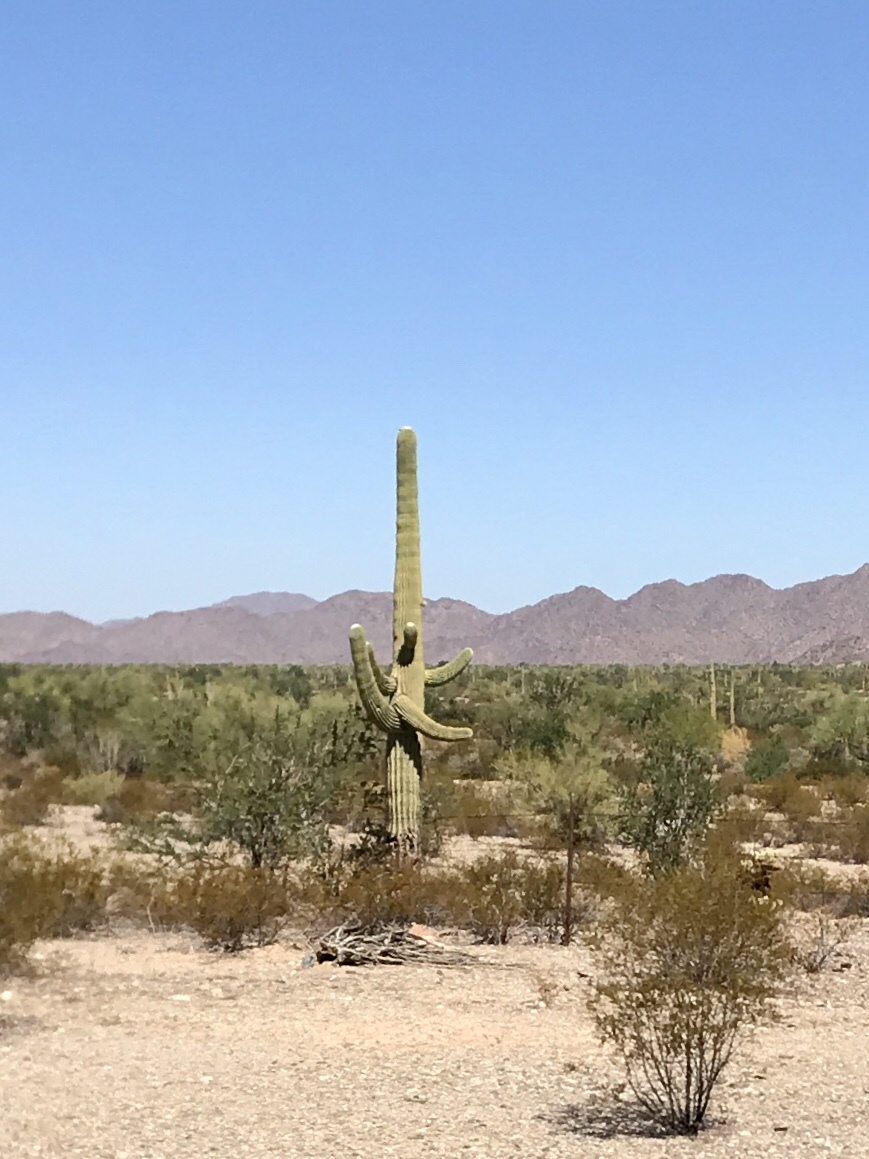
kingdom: Plantae
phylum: Tracheophyta
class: Magnoliopsida
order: Caryophyllales
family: Cactaceae
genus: Carnegiea
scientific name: Carnegiea gigantea
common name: Saguaro
